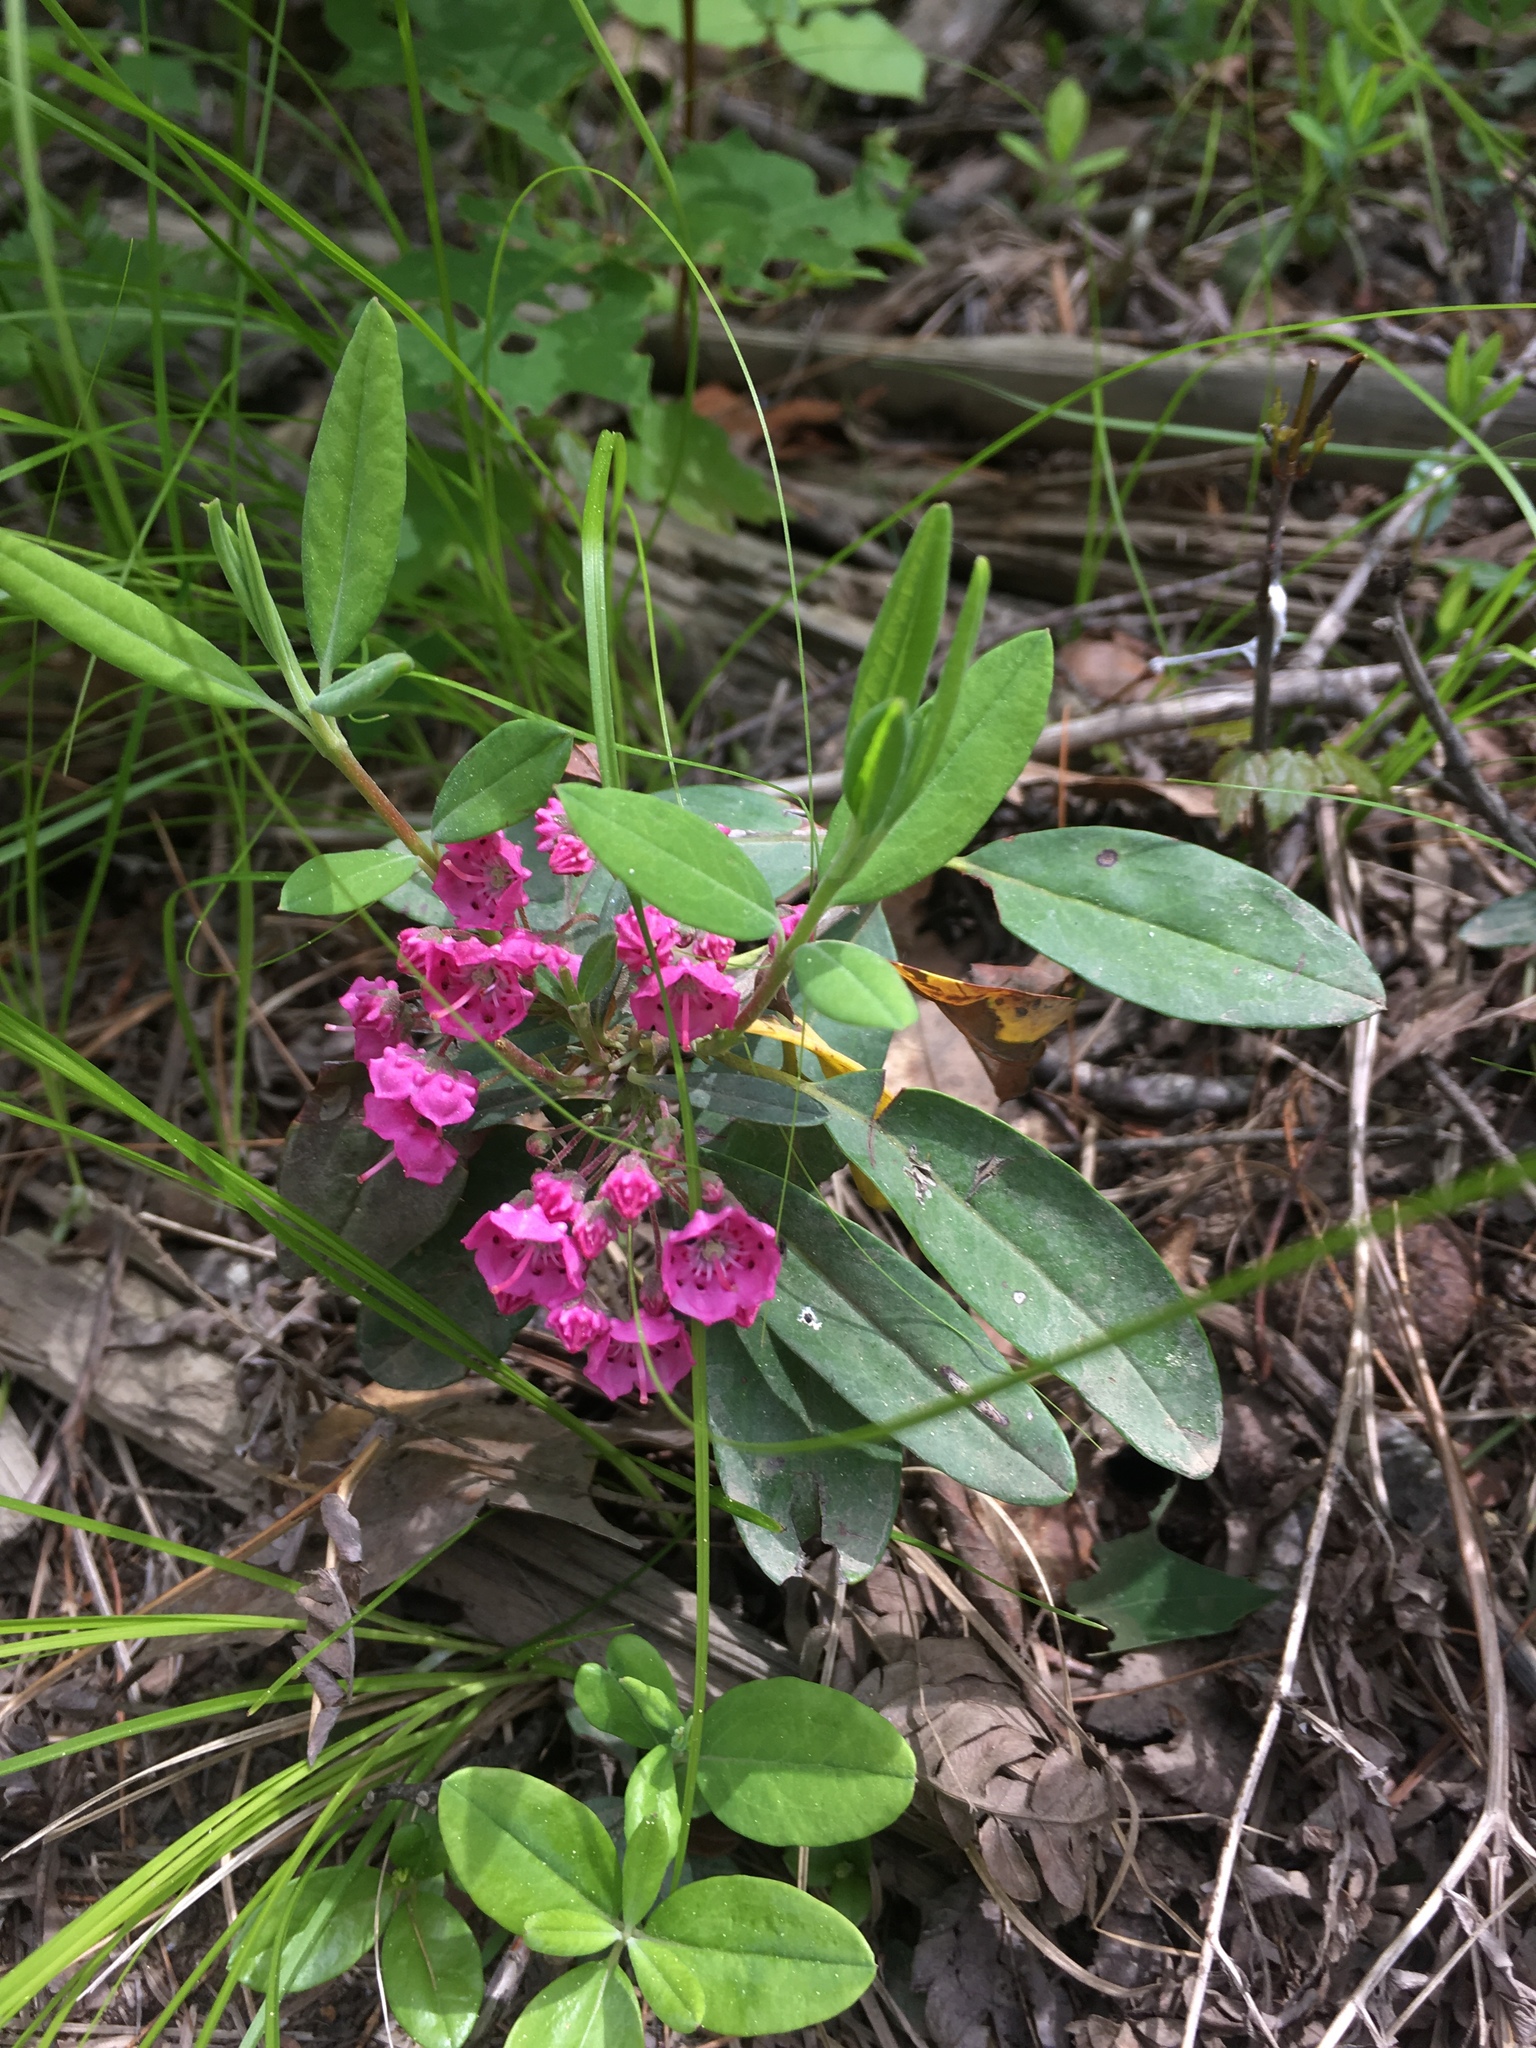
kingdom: Plantae
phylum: Tracheophyta
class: Magnoliopsida
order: Ericales
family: Ericaceae
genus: Kalmia
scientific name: Kalmia angustifolia
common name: Sheep-laurel
